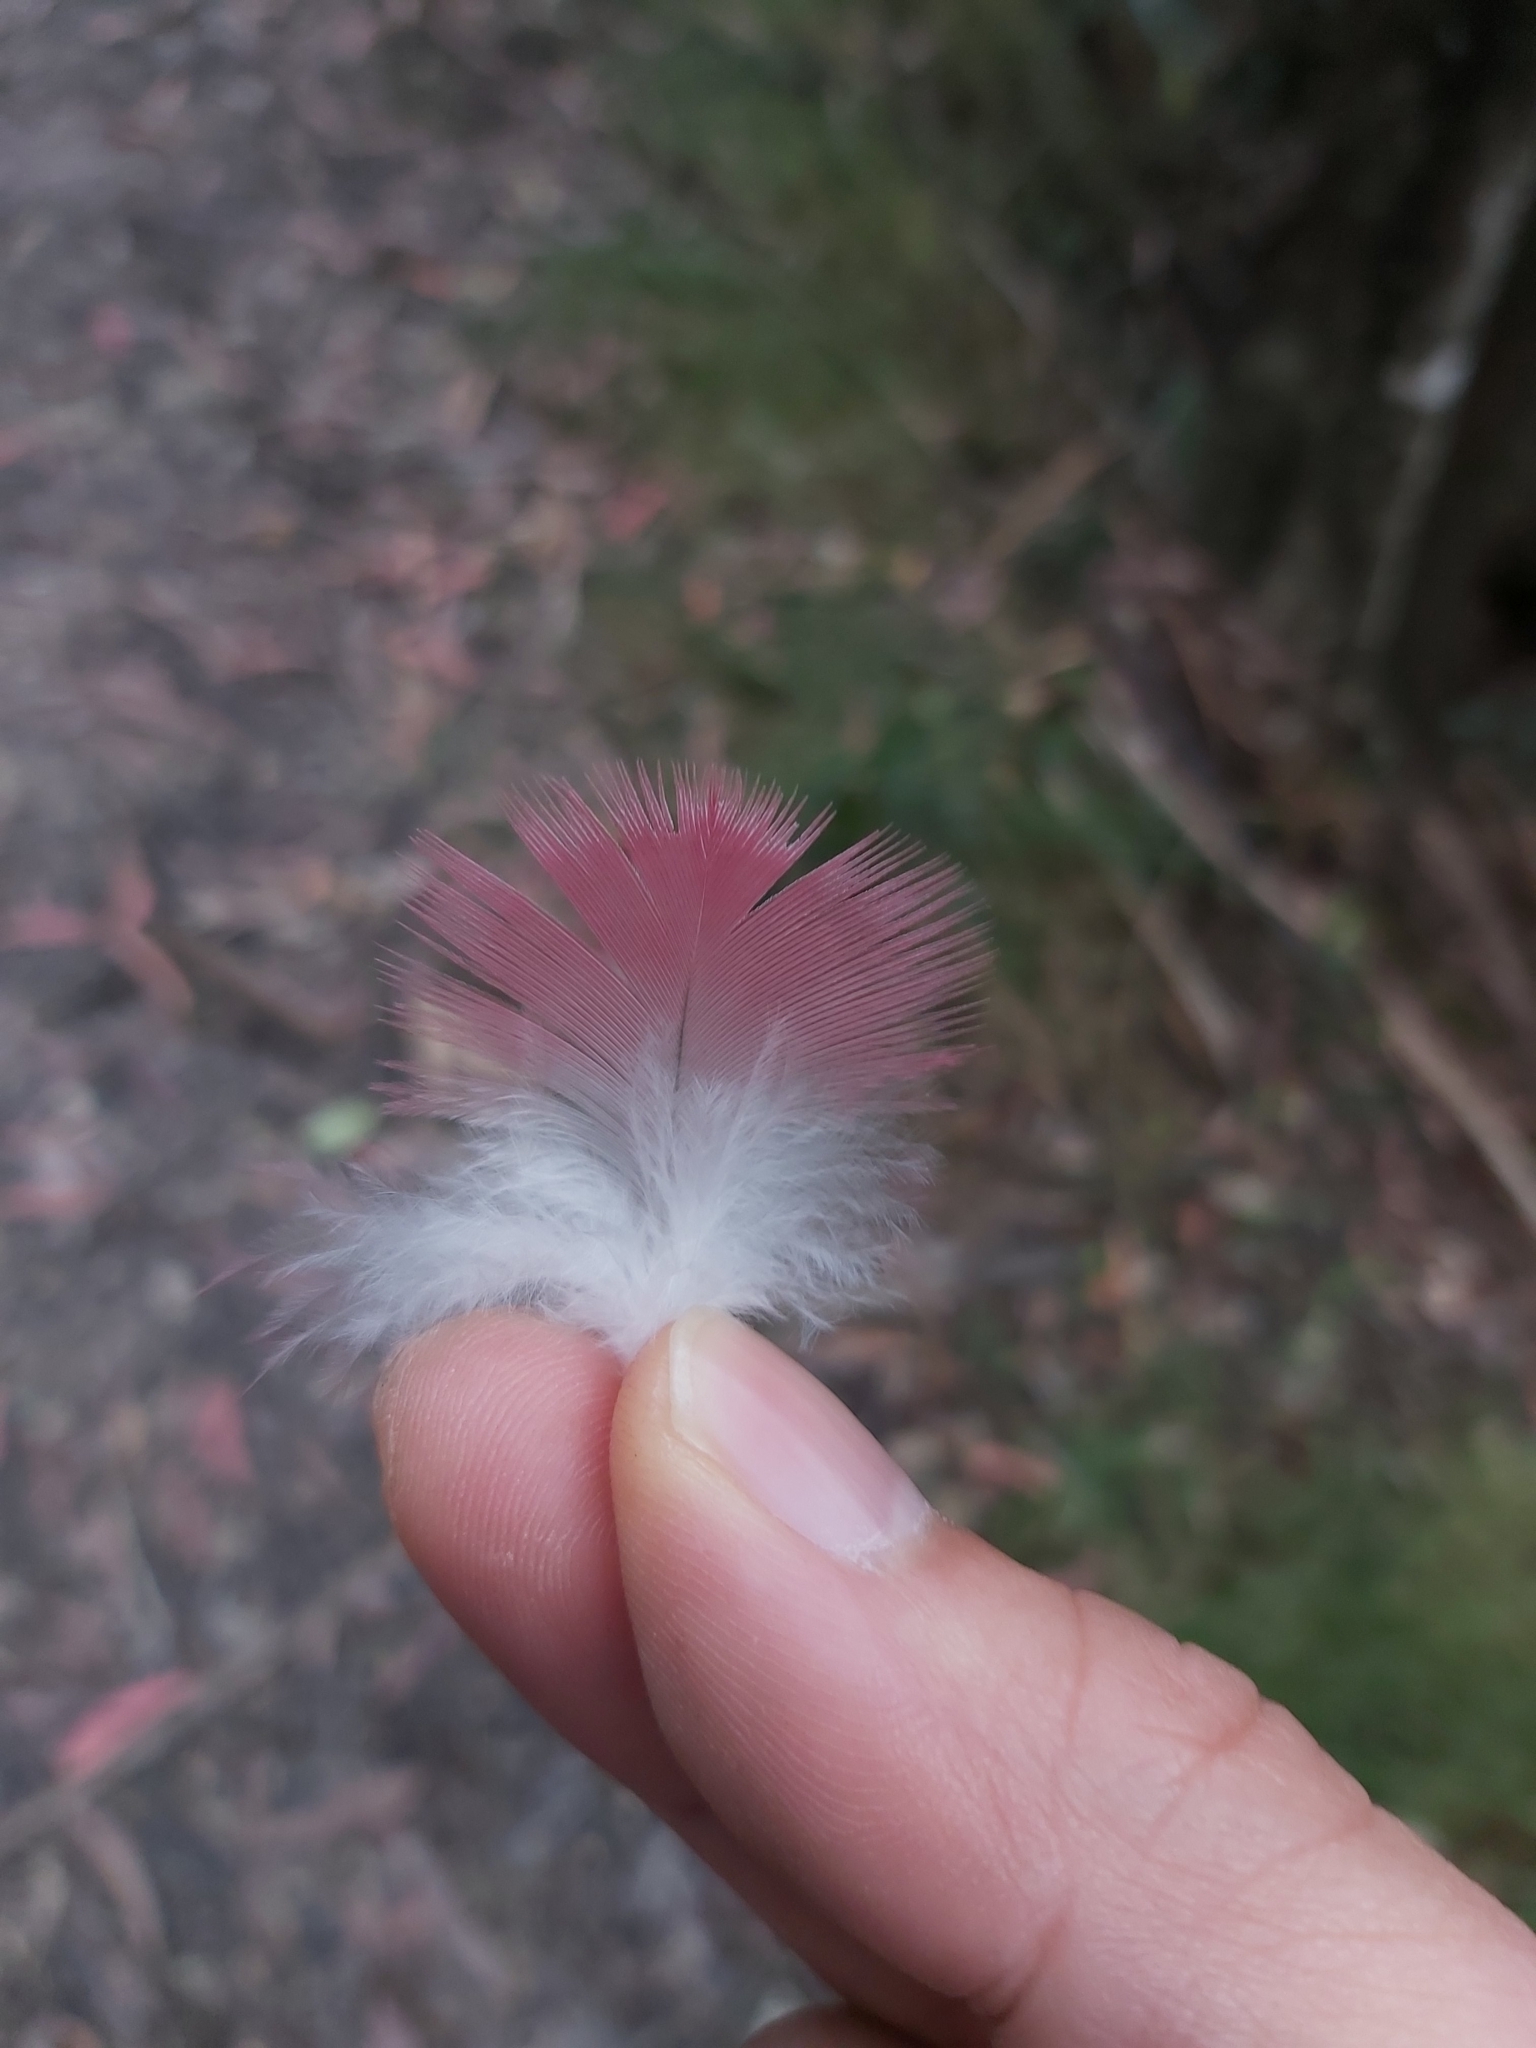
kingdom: Animalia
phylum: Chordata
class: Aves
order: Psittaciformes
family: Psittacidae
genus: Eolophus
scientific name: Eolophus roseicapilla
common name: Galah
